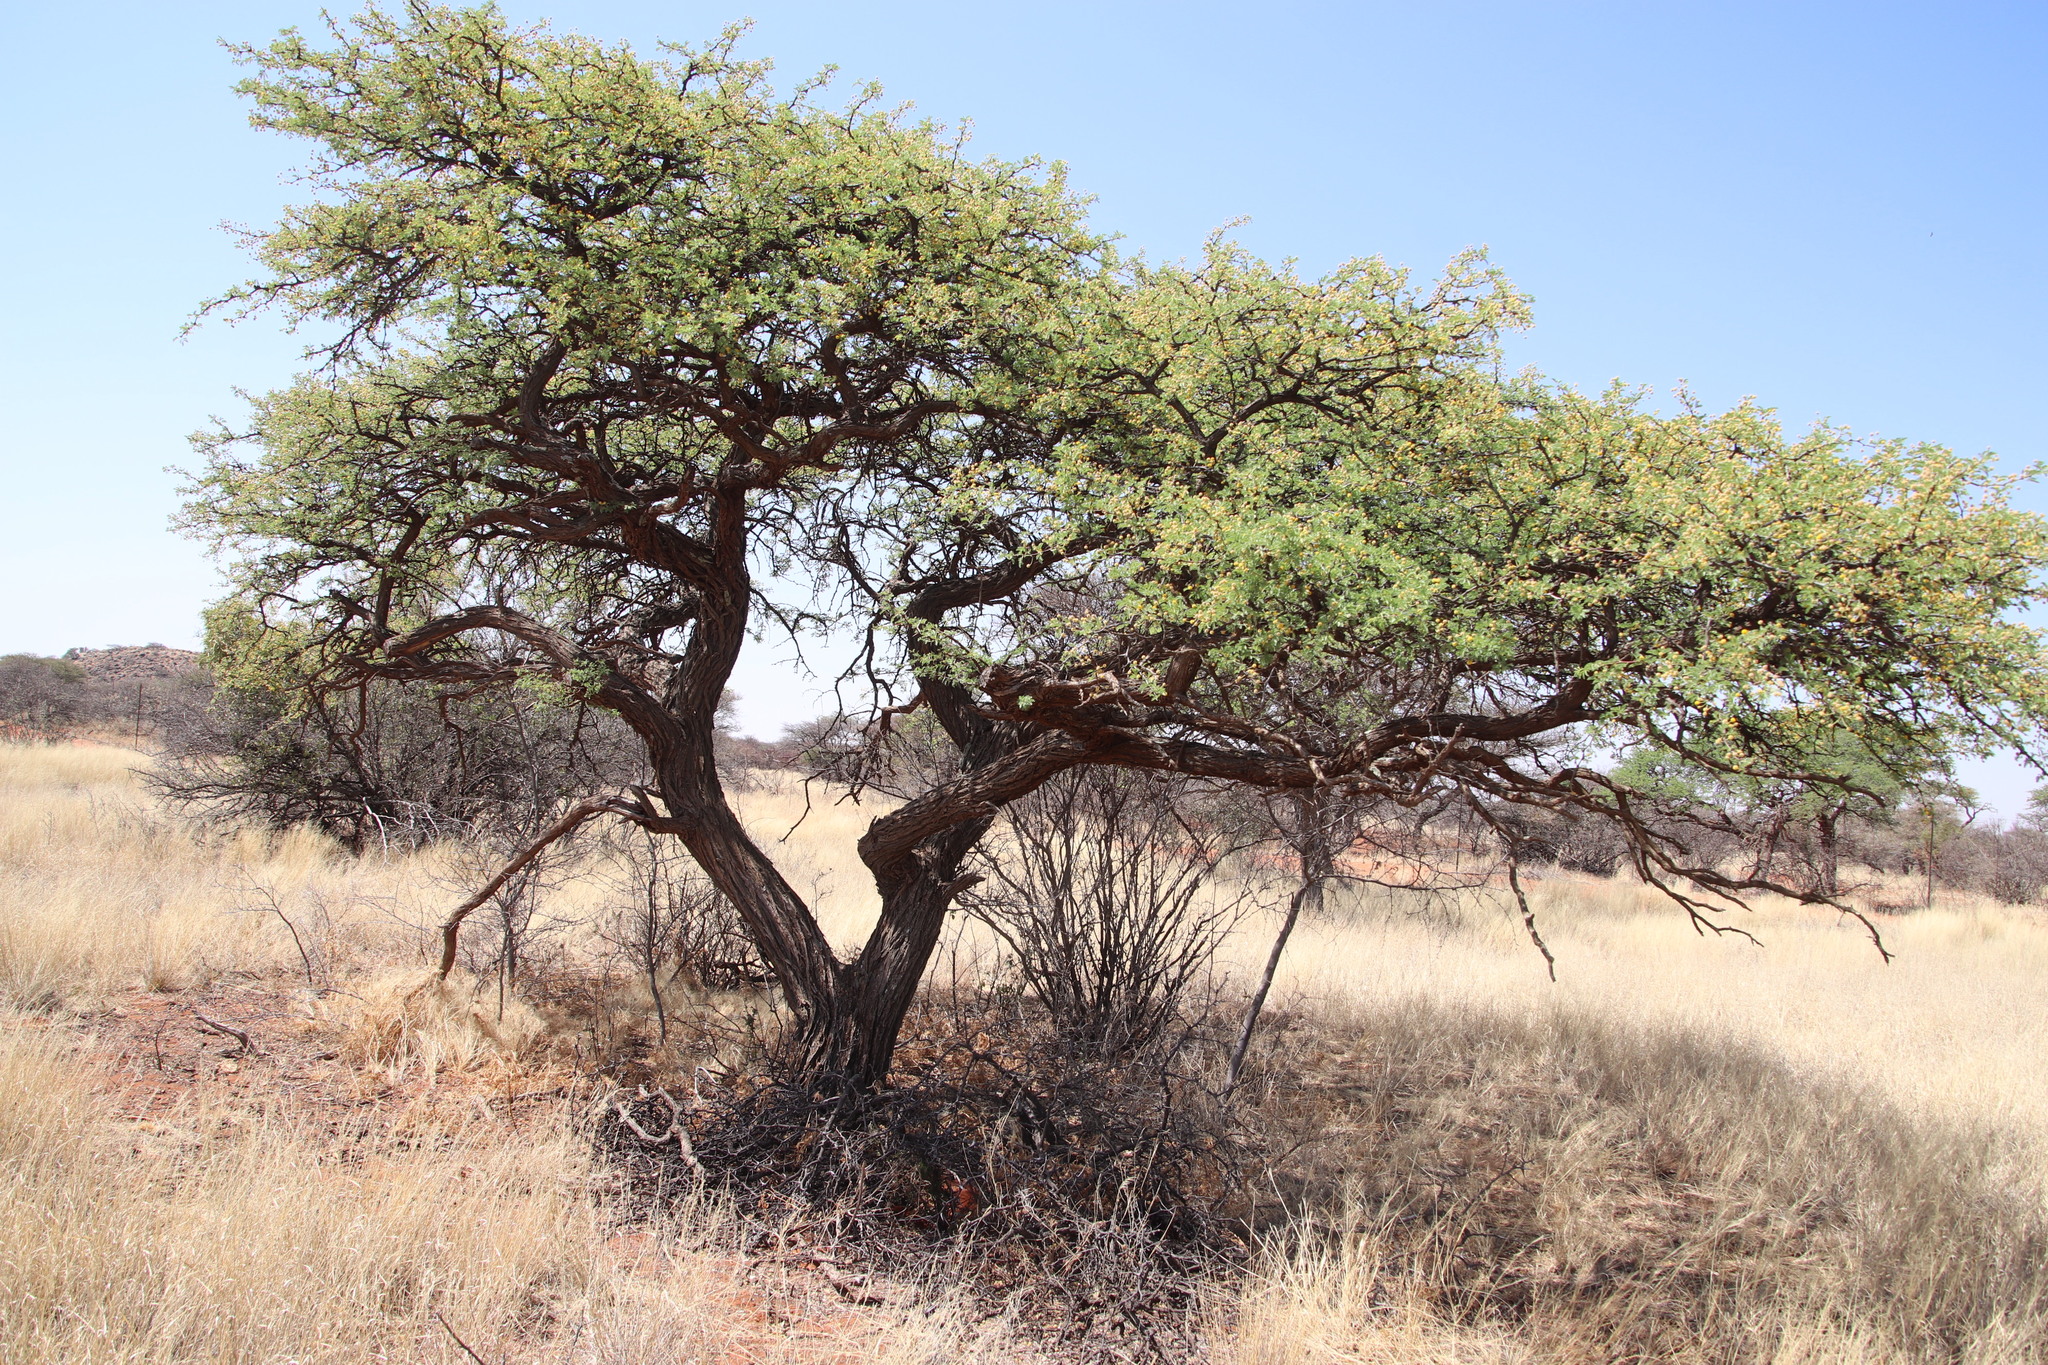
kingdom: Plantae
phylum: Tracheophyta
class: Magnoliopsida
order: Fabales
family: Fabaceae
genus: Vachellia
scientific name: Vachellia erioloba
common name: Camel thorn
